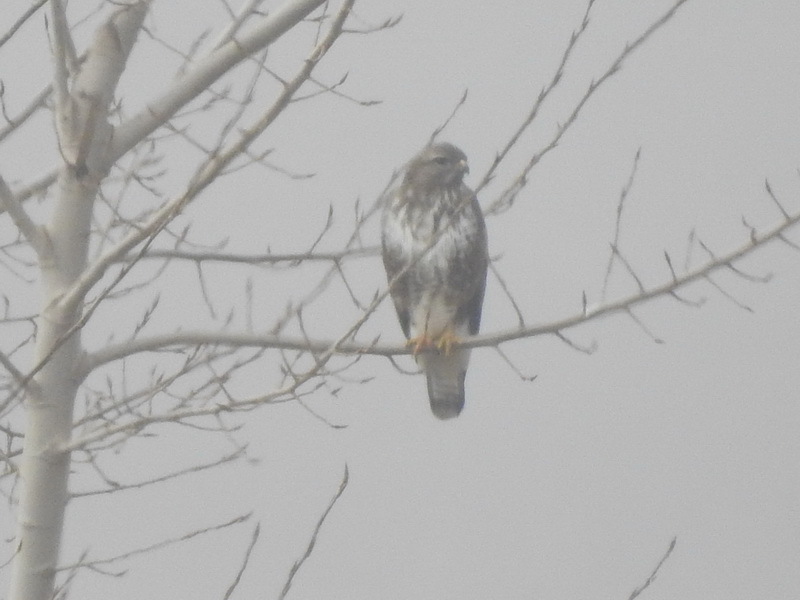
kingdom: Animalia
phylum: Chordata
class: Aves
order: Accipitriformes
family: Accipitridae
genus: Buteo
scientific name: Buteo buteo
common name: Common buzzard
